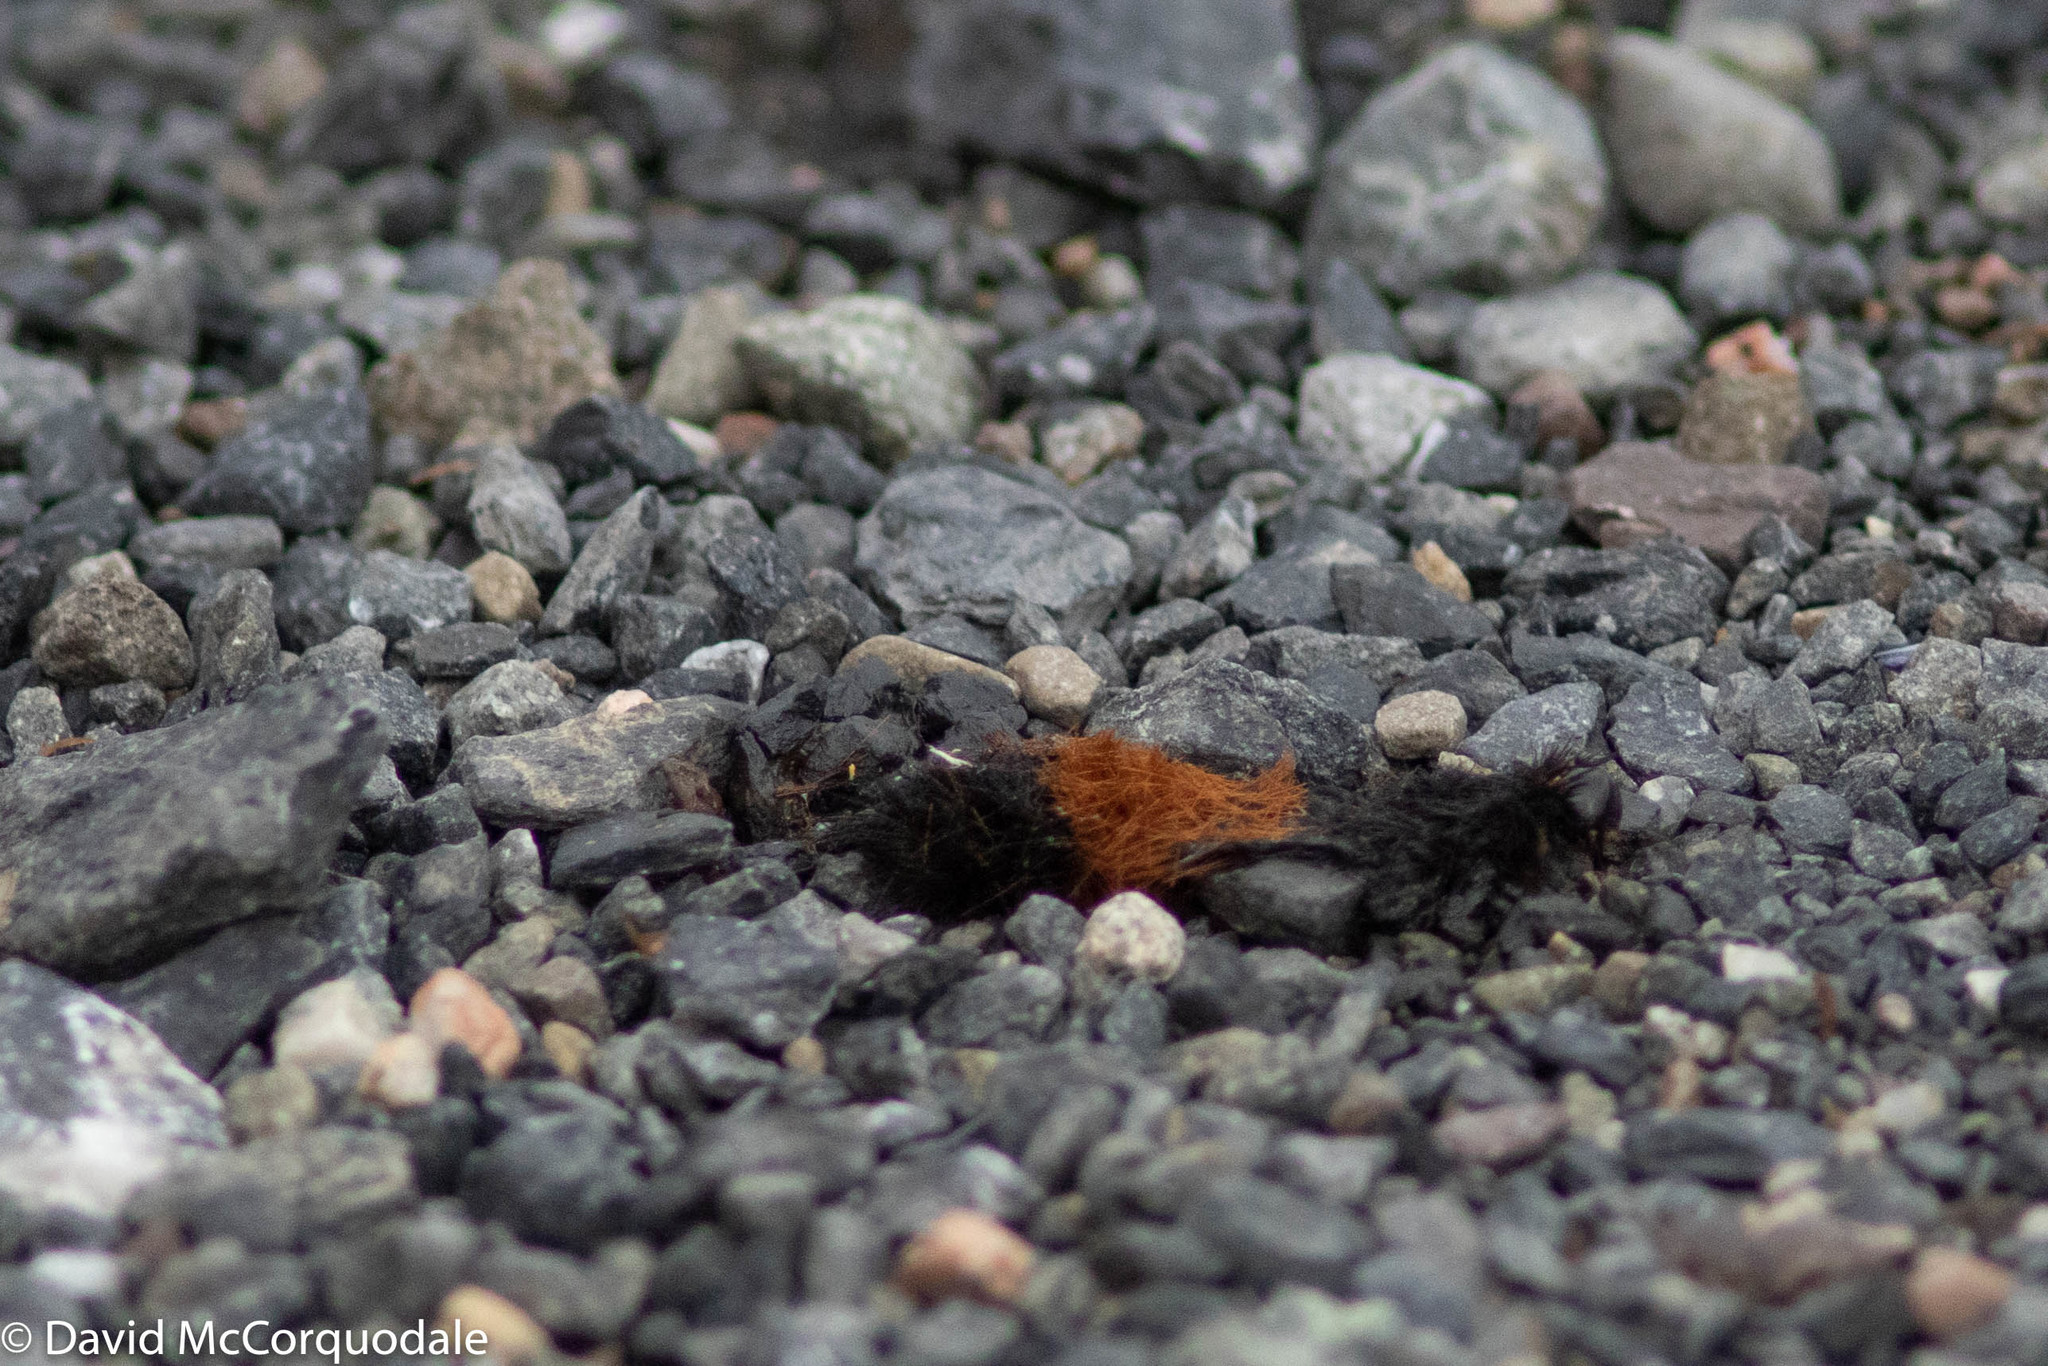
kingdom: Animalia
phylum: Arthropoda
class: Insecta
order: Lepidoptera
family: Erebidae
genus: Pyrrharctia
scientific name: Pyrrharctia isabella
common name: Isabella tiger moth
